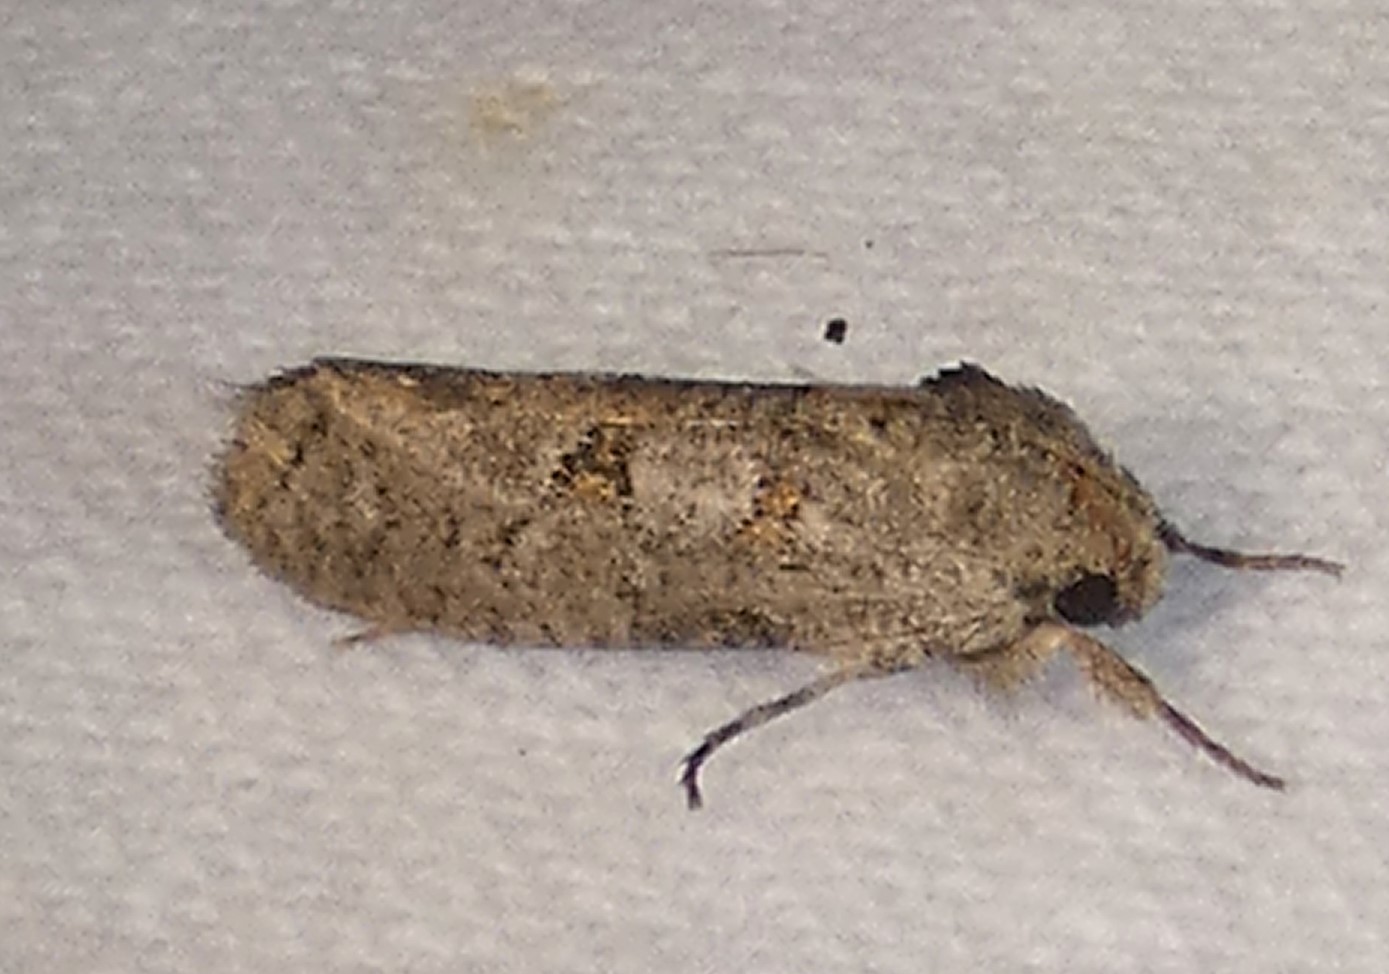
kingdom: Animalia
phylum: Arthropoda
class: Insecta
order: Lepidoptera
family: Tineidae
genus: Acrolophus
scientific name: Acrolophus piger
